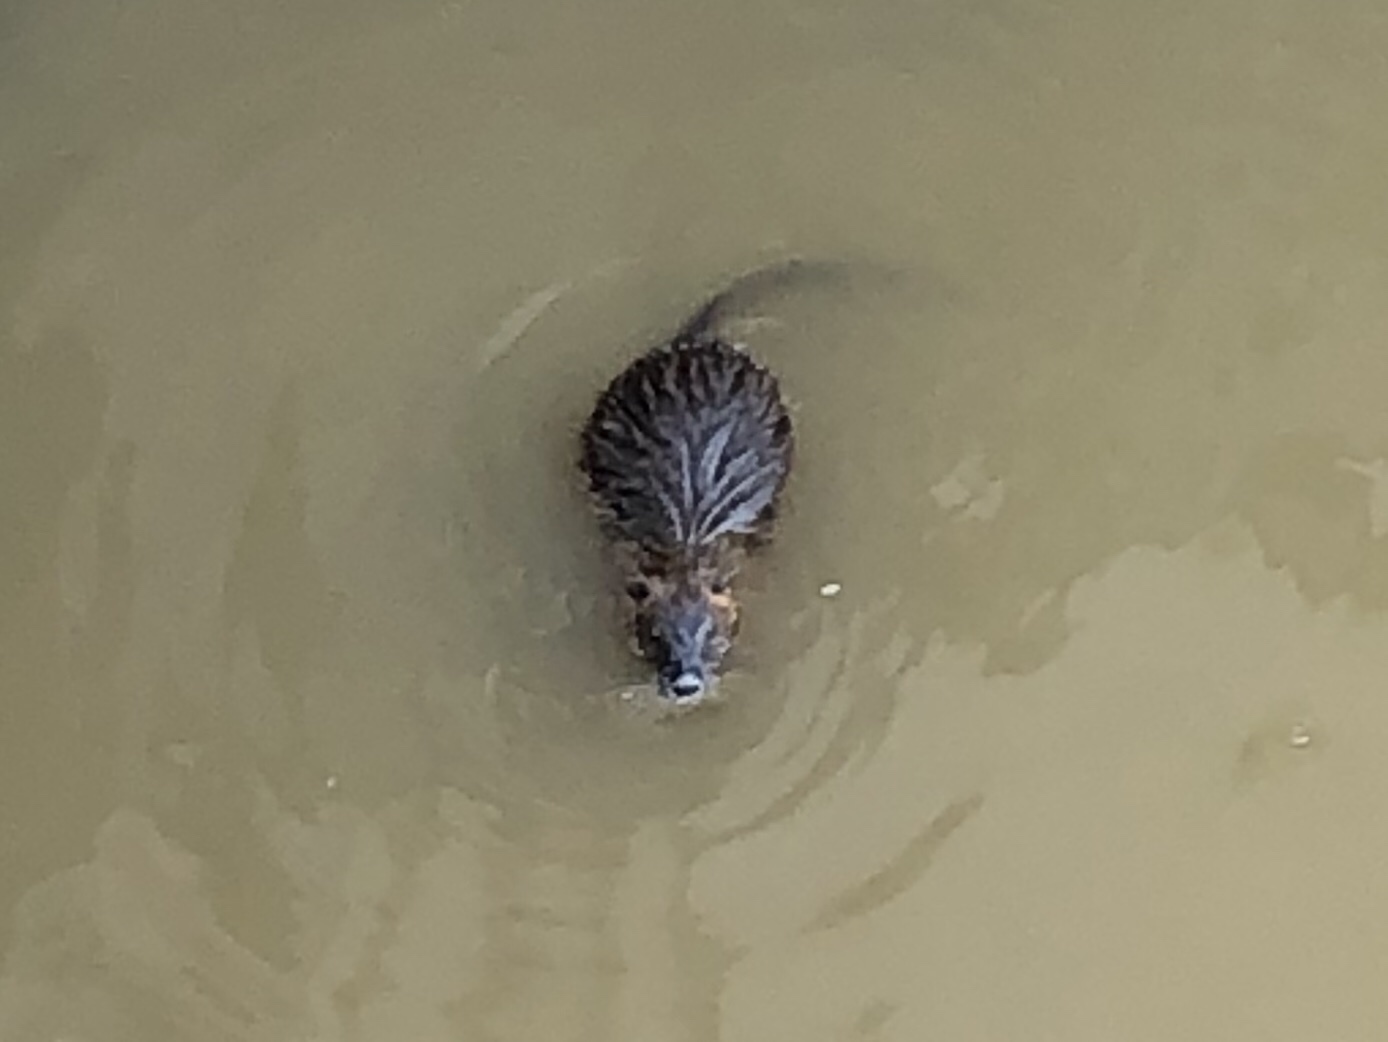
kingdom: Animalia
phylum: Chordata
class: Mammalia
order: Rodentia
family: Myocastoridae
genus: Myocastor
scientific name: Myocastor coypus
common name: Coypu
